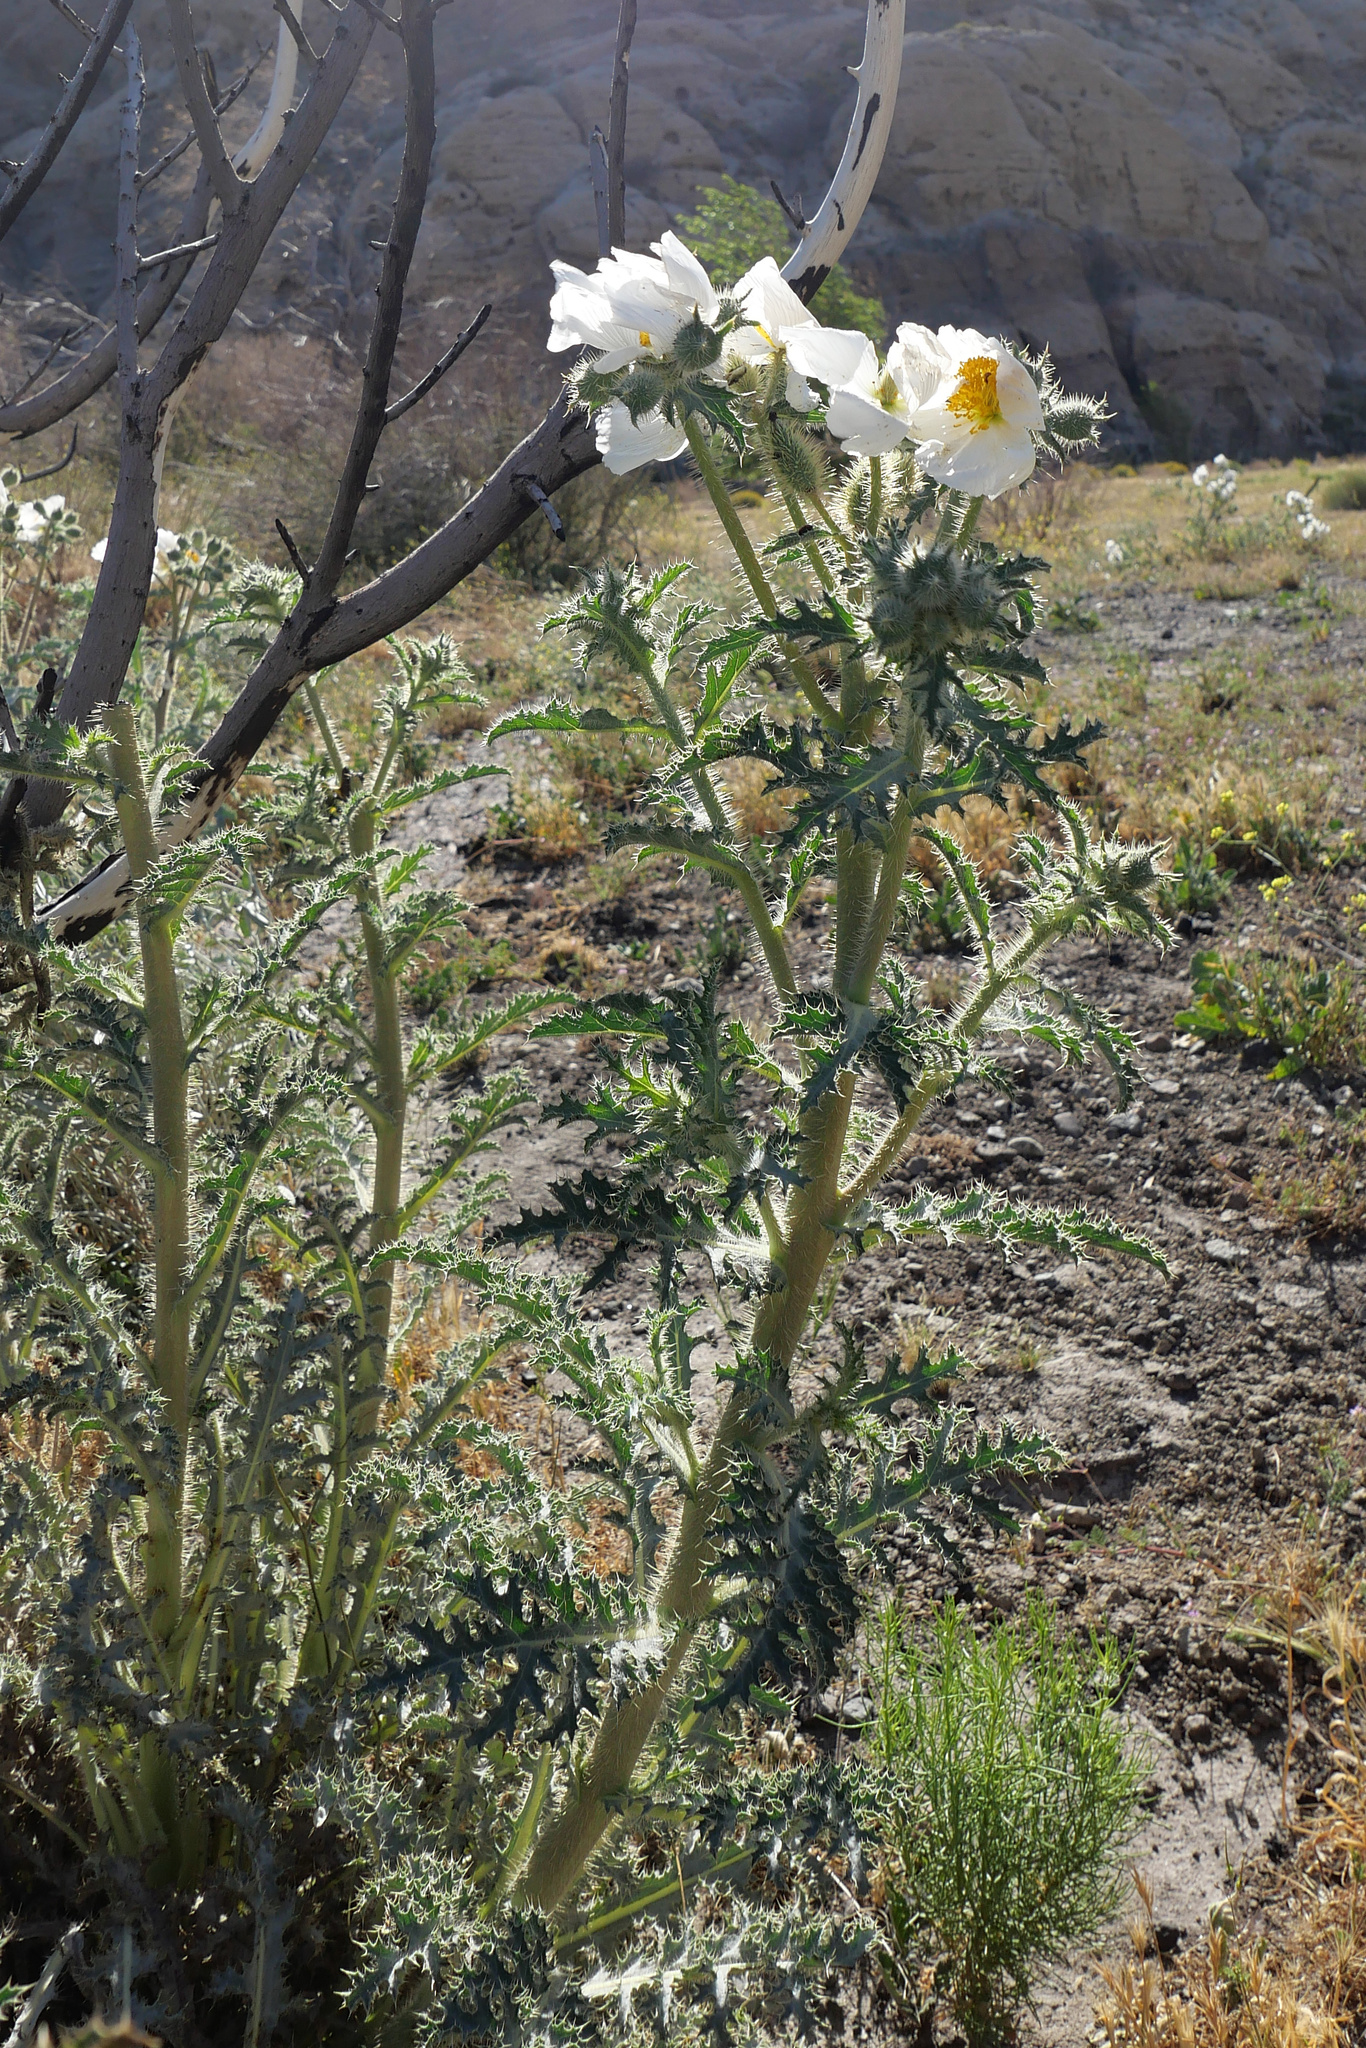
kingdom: Plantae
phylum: Tracheophyta
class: Magnoliopsida
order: Ranunculales
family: Papaveraceae
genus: Argemone
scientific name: Argemone munita
